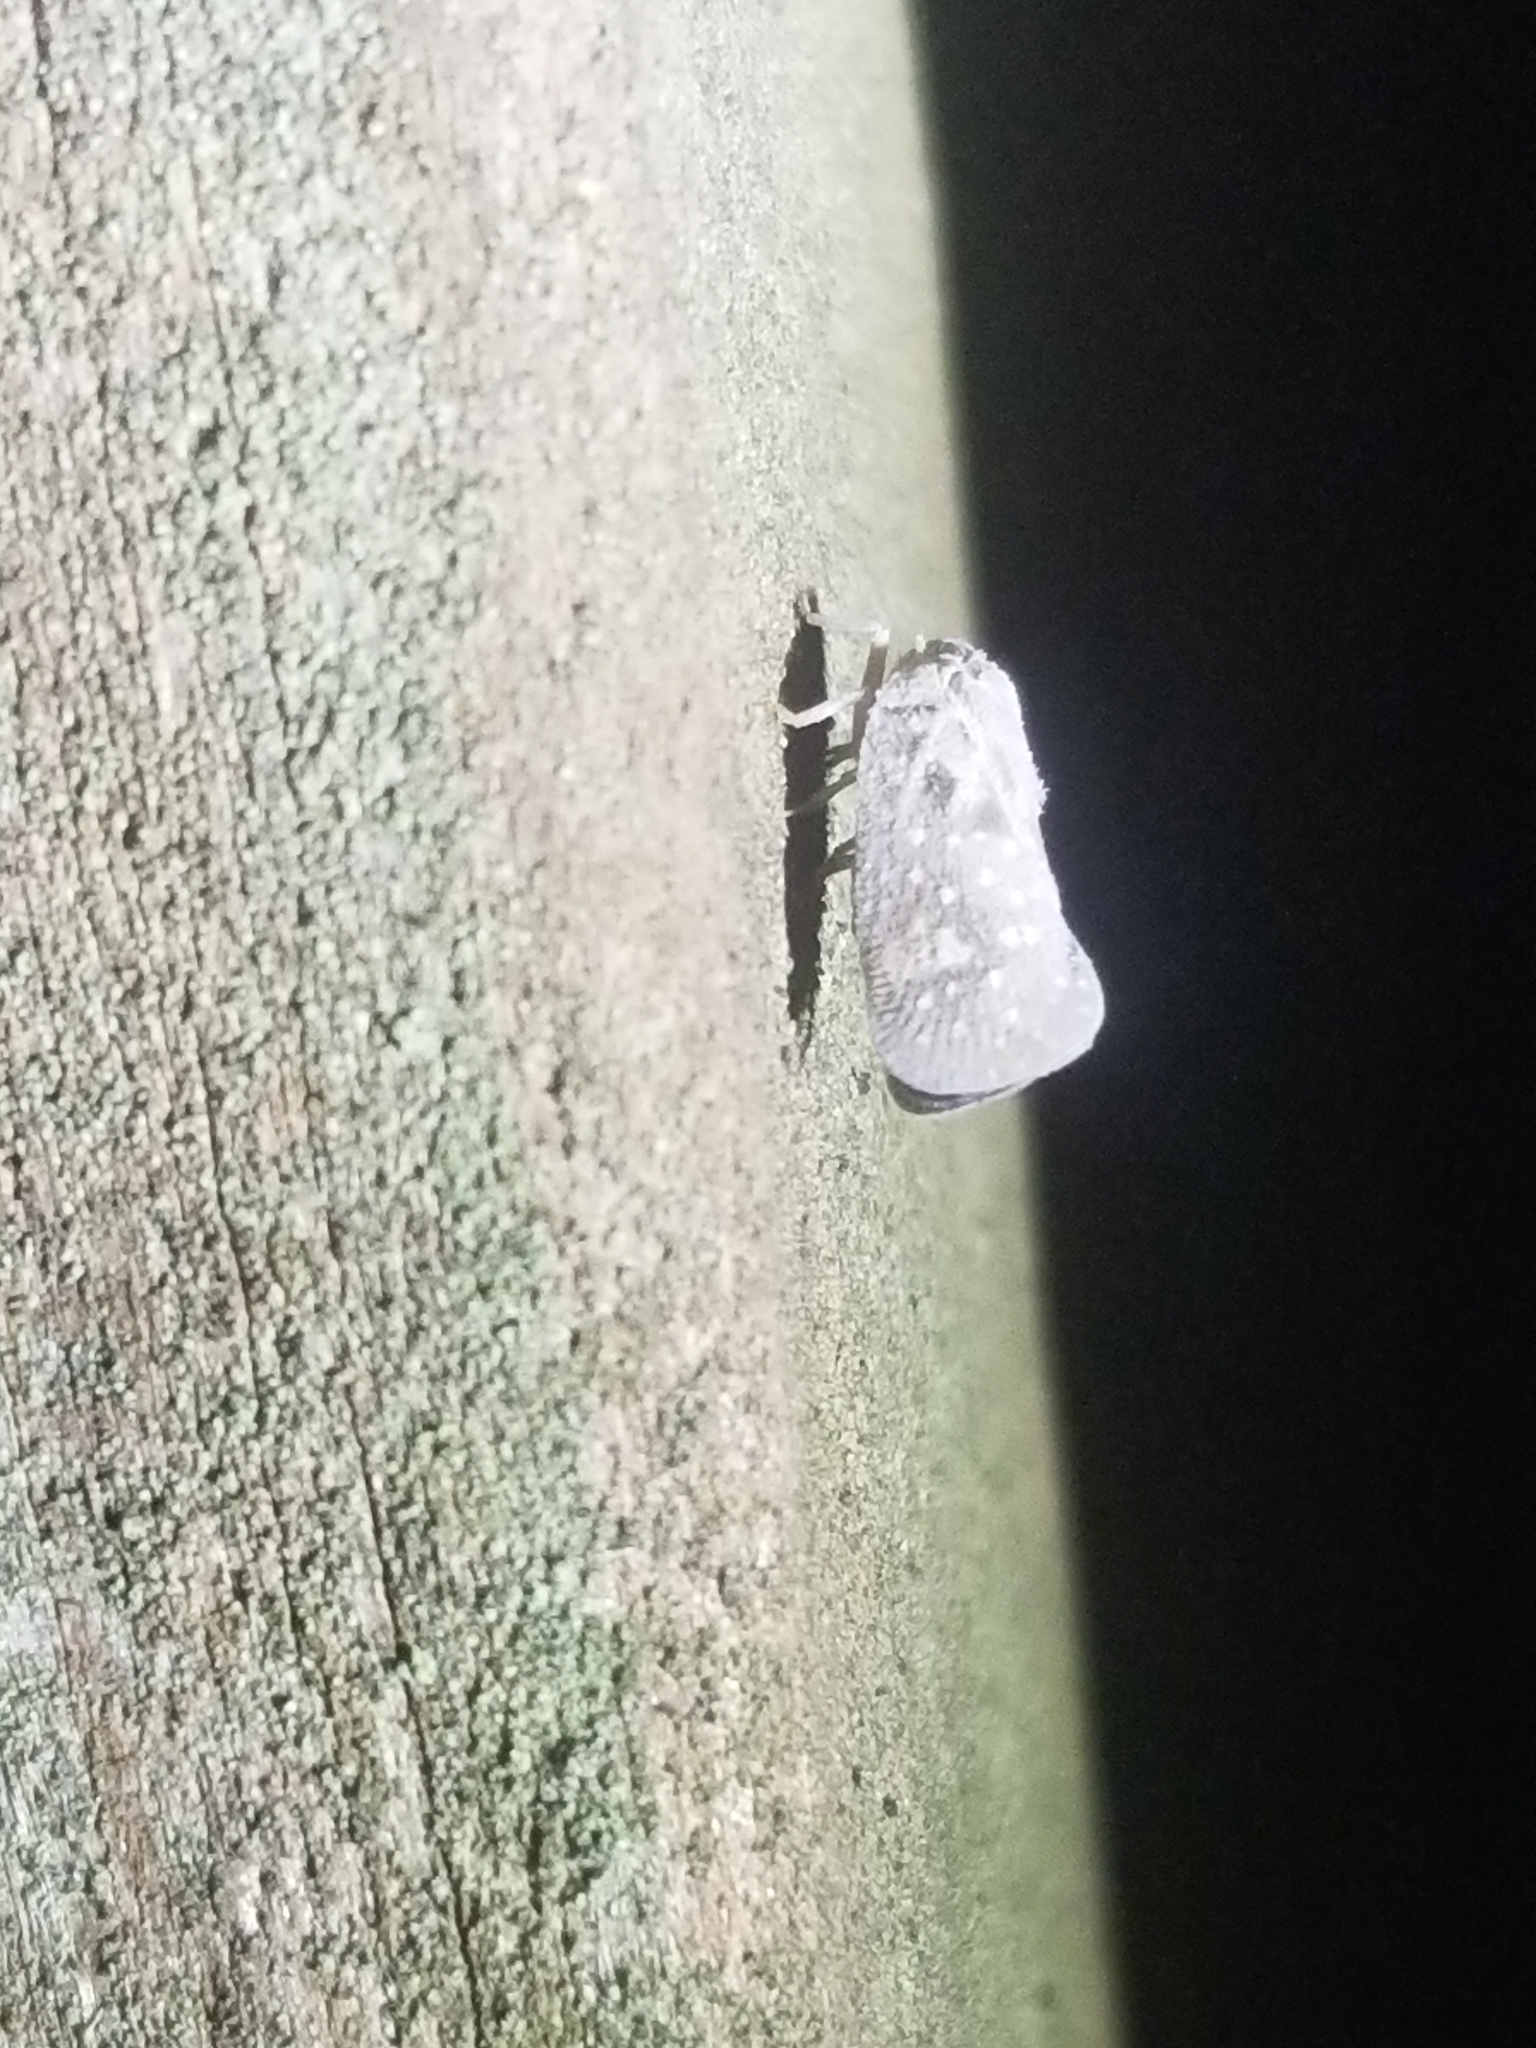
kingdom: Animalia
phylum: Arthropoda
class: Insecta
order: Hemiptera
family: Flatidae
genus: Metcalfa
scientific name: Metcalfa pruinosa
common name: Citrus flatid planthopper
